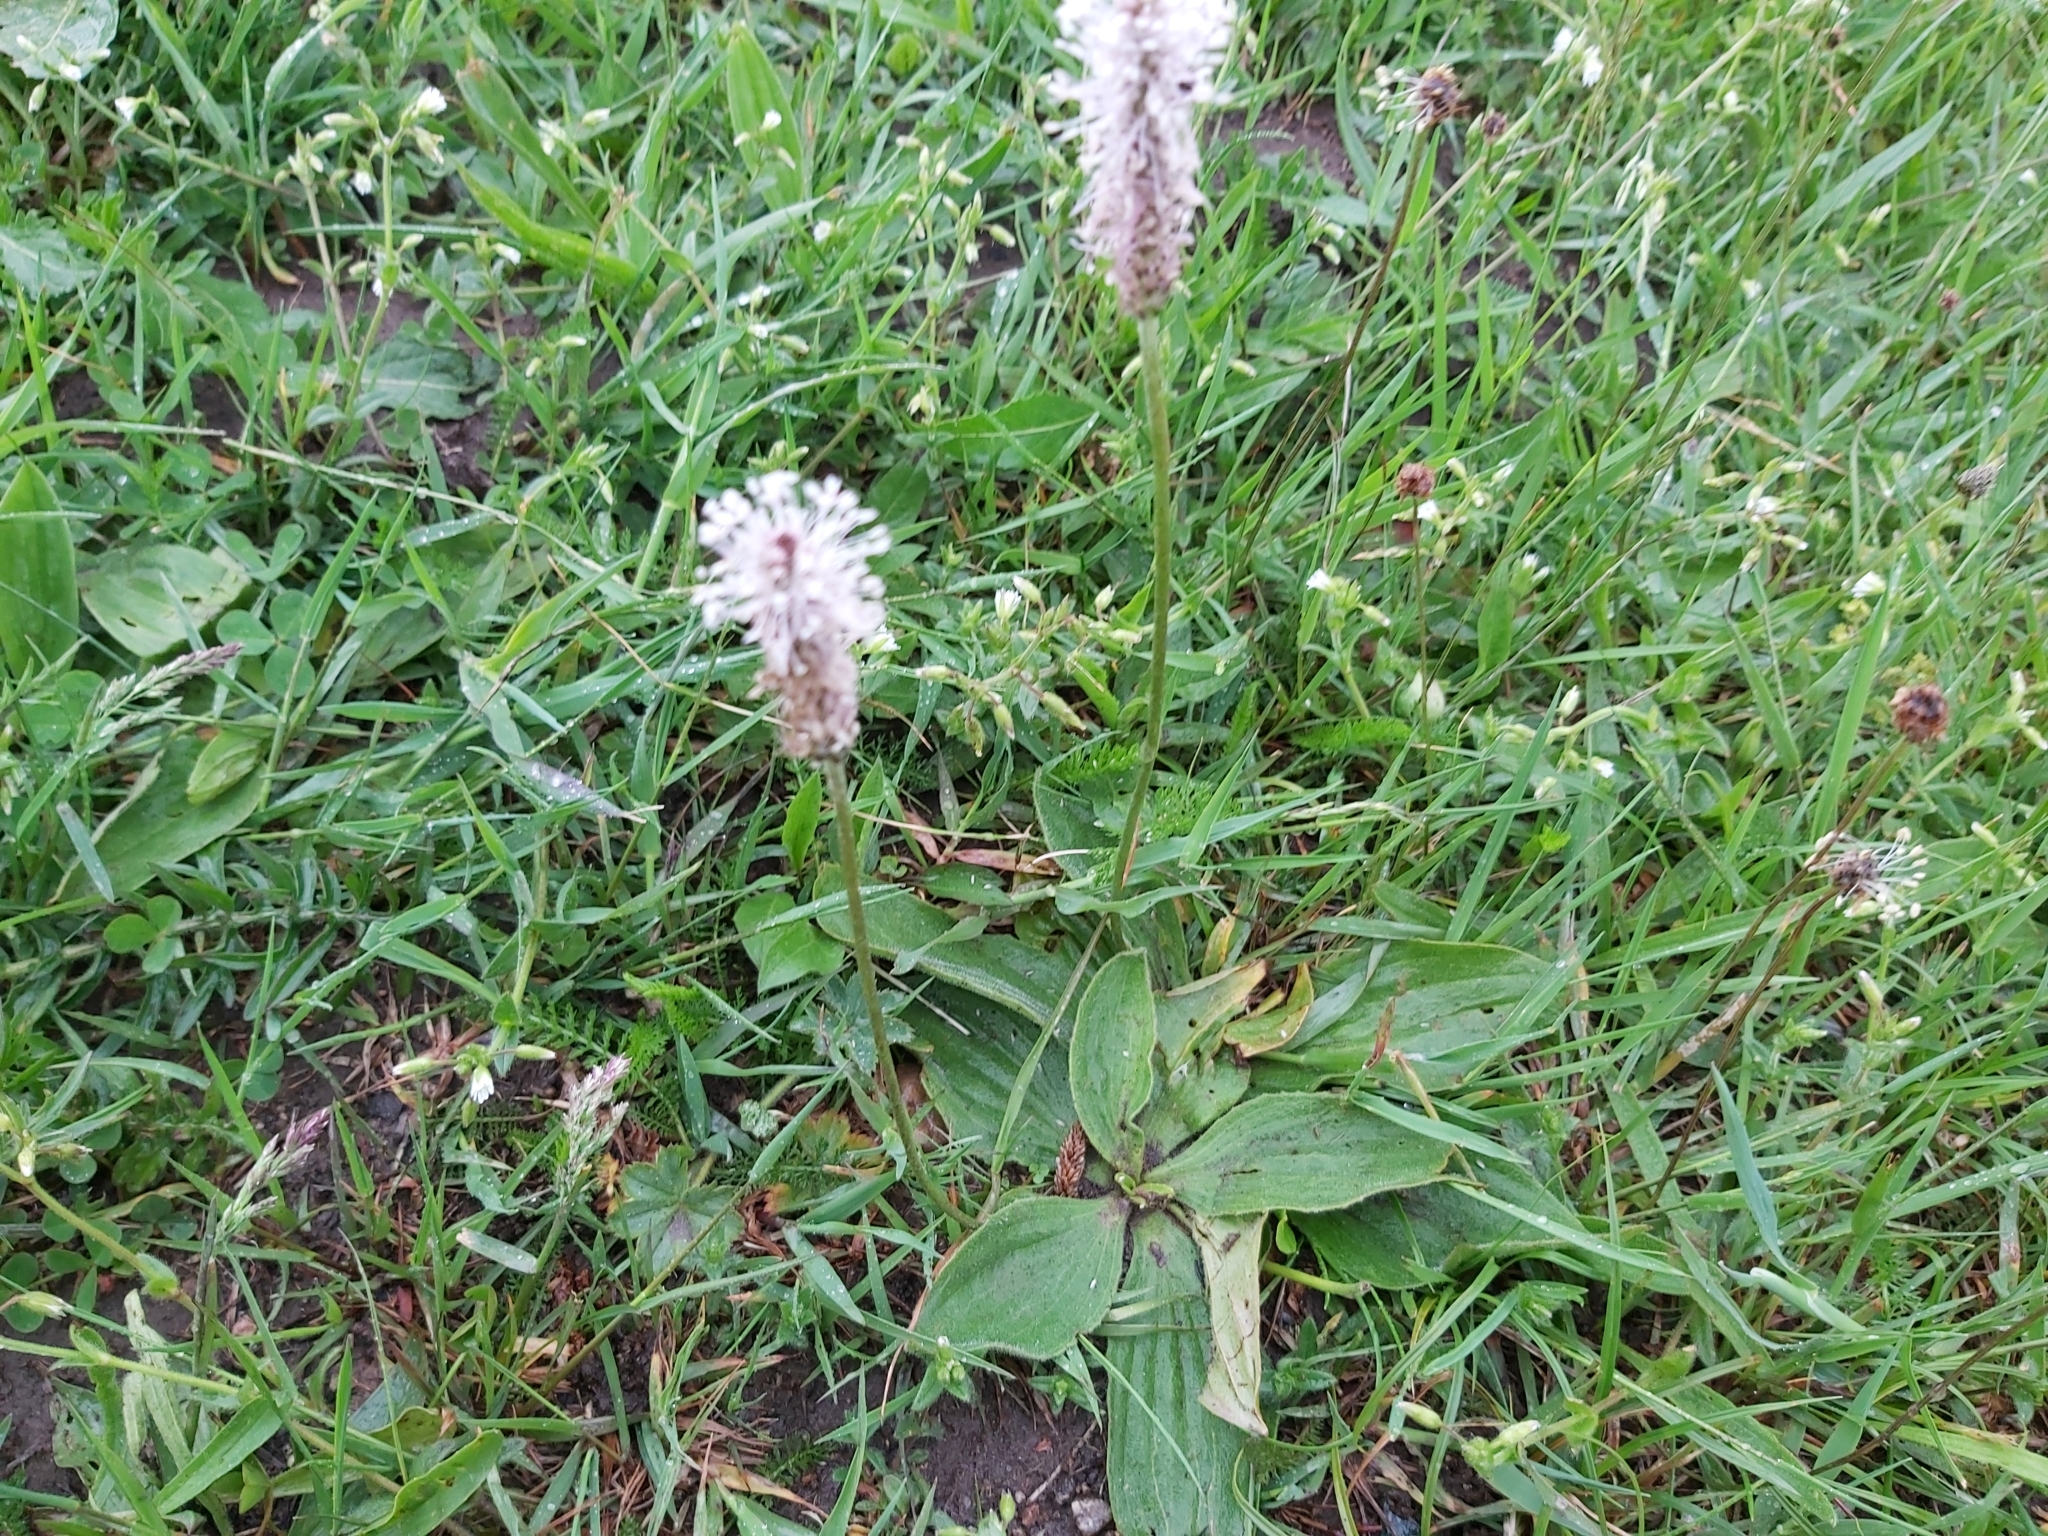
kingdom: Plantae
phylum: Tracheophyta
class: Magnoliopsida
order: Lamiales
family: Plantaginaceae
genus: Plantago
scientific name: Plantago media
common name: Hoary plantain
